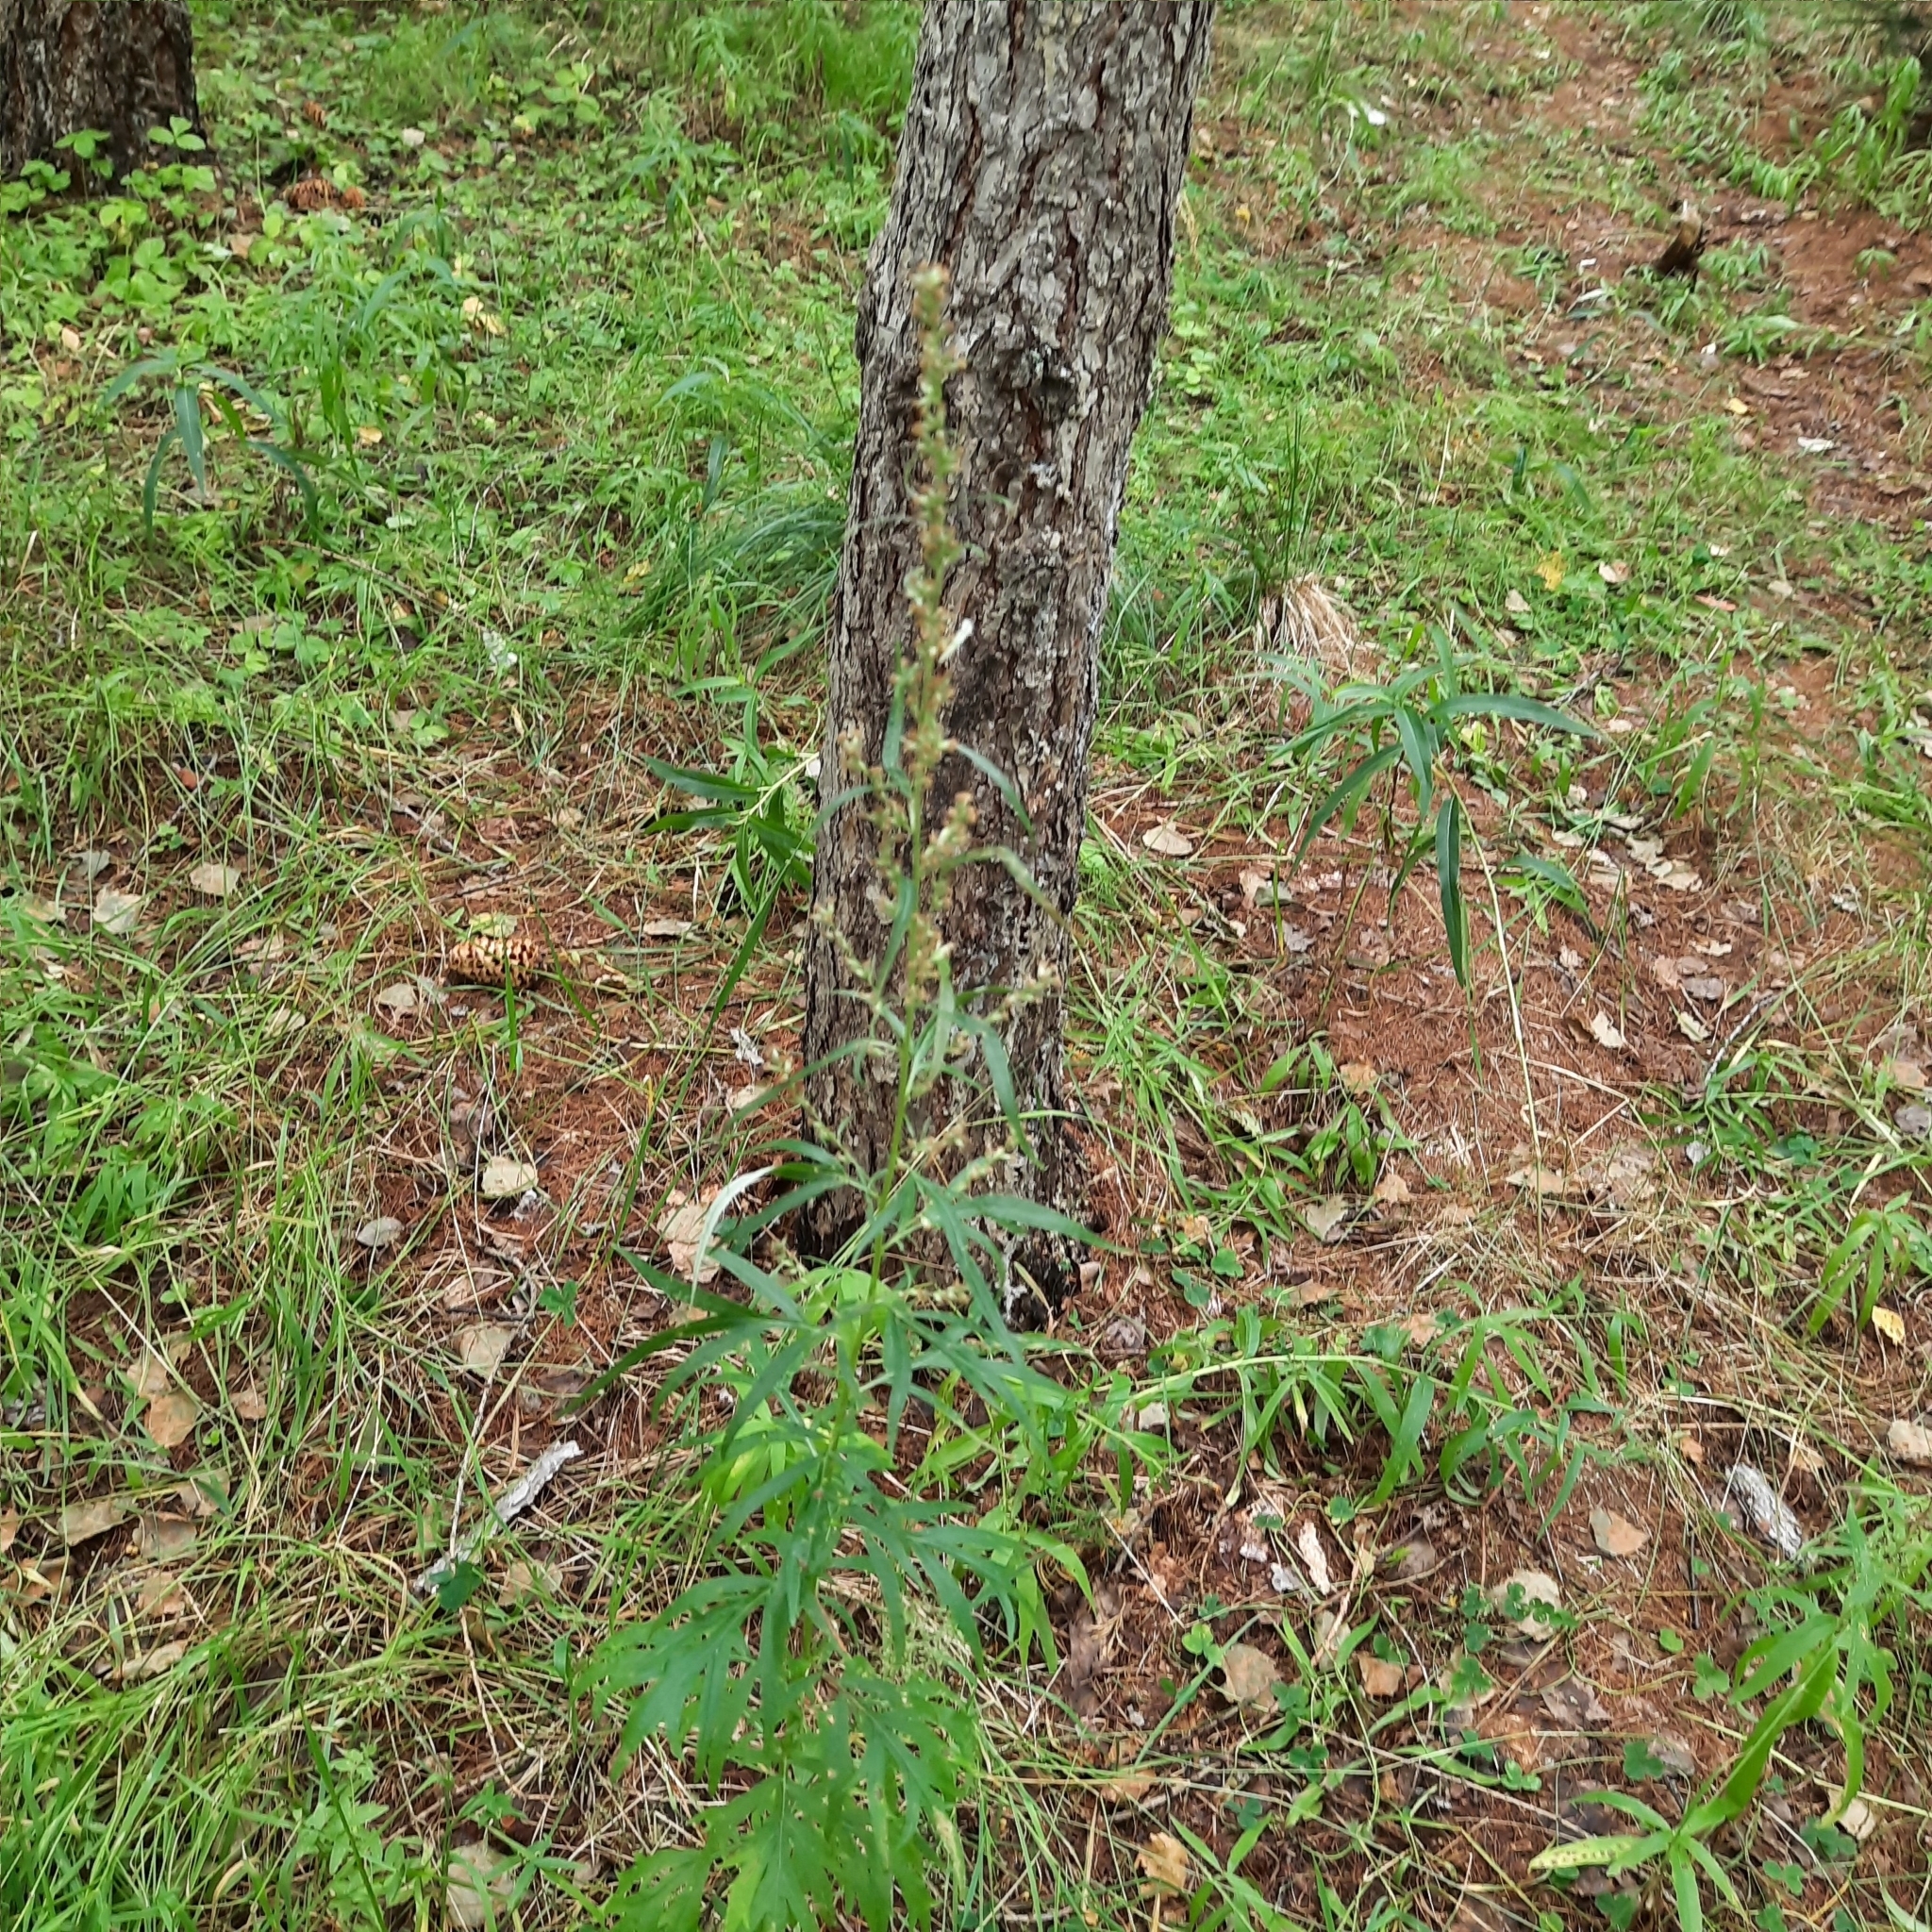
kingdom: Plantae
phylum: Tracheophyta
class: Magnoliopsida
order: Asterales
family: Asteraceae
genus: Artemisia
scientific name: Artemisia vulgaris
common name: Mugwort
